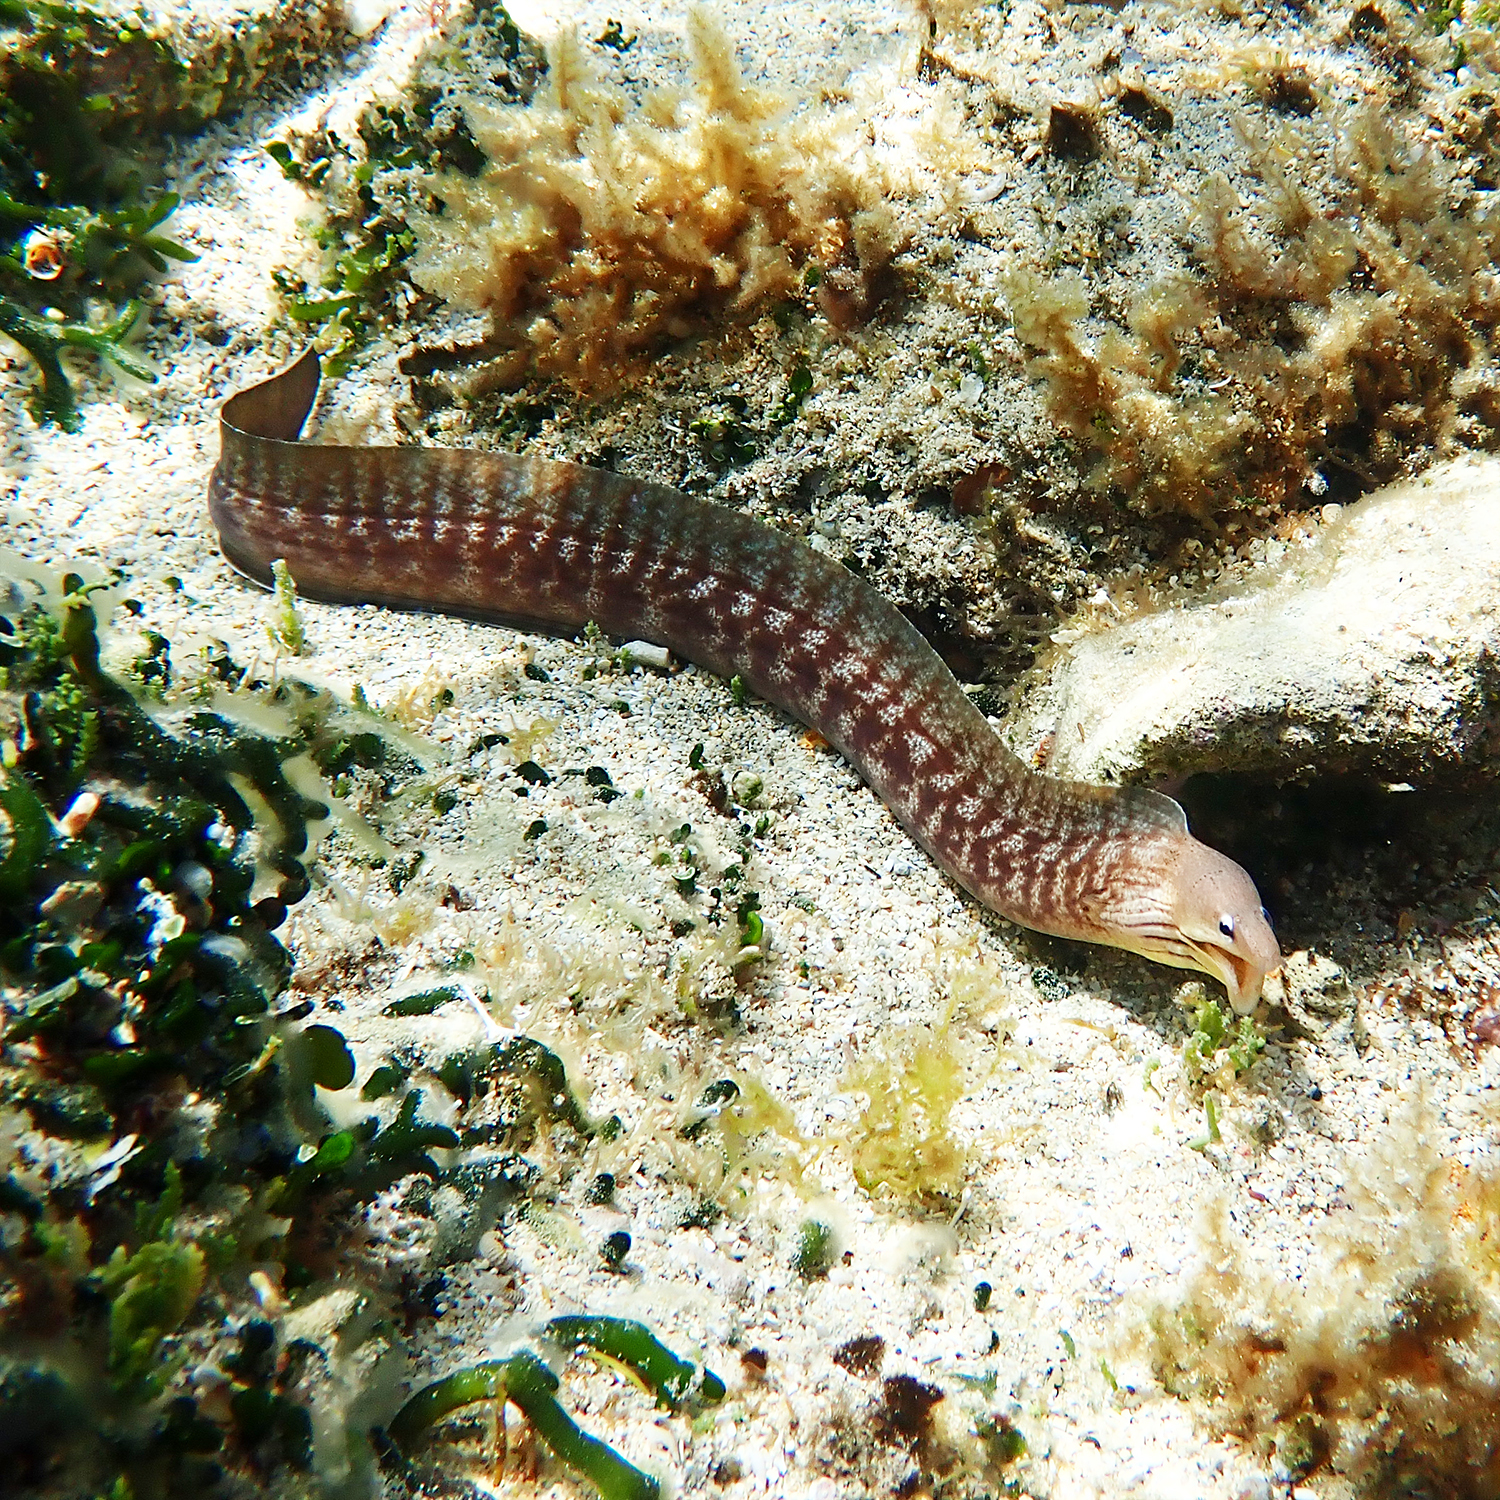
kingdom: Animalia
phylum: Chordata
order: Anguilliformes
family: Muraenidae
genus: Gymnothorax
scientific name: Gymnothorax nubilus
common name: Grey moray
